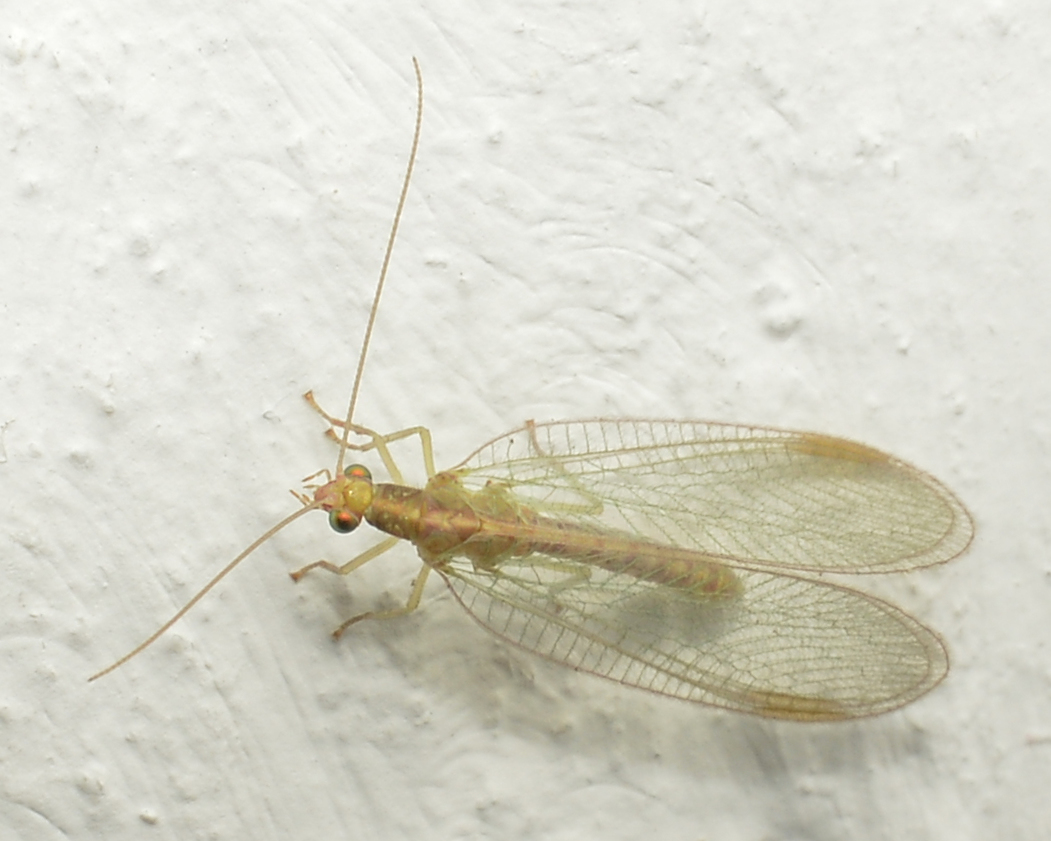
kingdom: Animalia
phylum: Arthropoda
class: Insecta
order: Neuroptera
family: Chrysopidae
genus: Chrysoperla
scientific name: Chrysoperla
